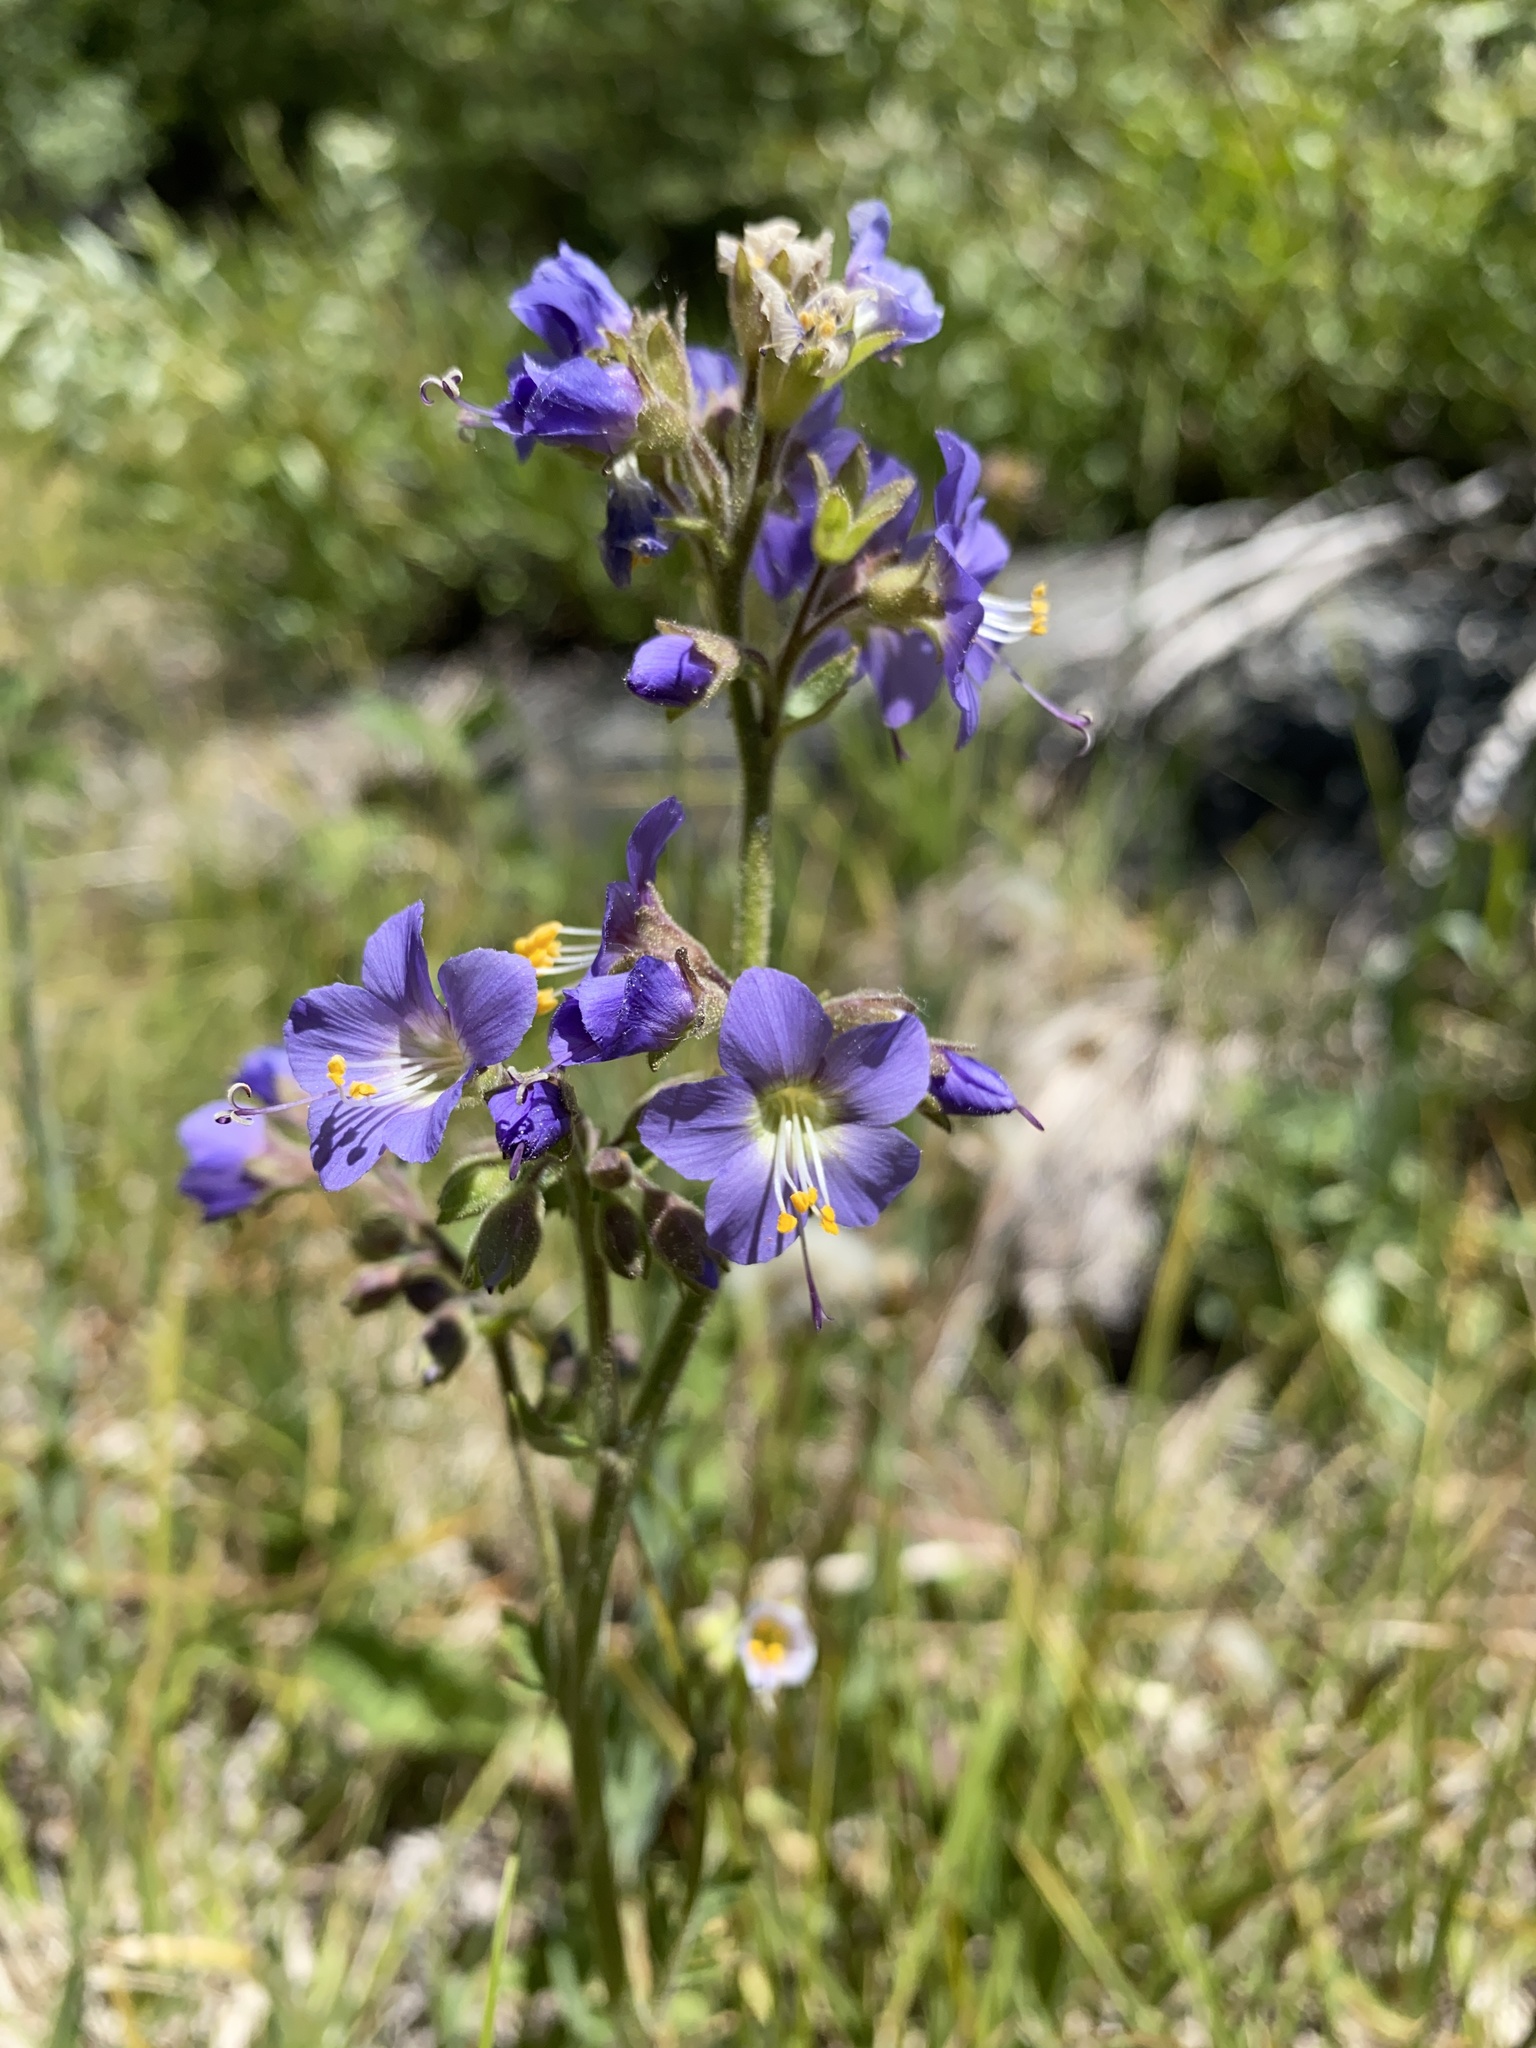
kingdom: Plantae
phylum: Tracheophyta
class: Magnoliopsida
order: Ericales
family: Polemoniaceae
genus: Polemonium
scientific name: Polemonium occidentale
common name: Western jacob's-ladder
